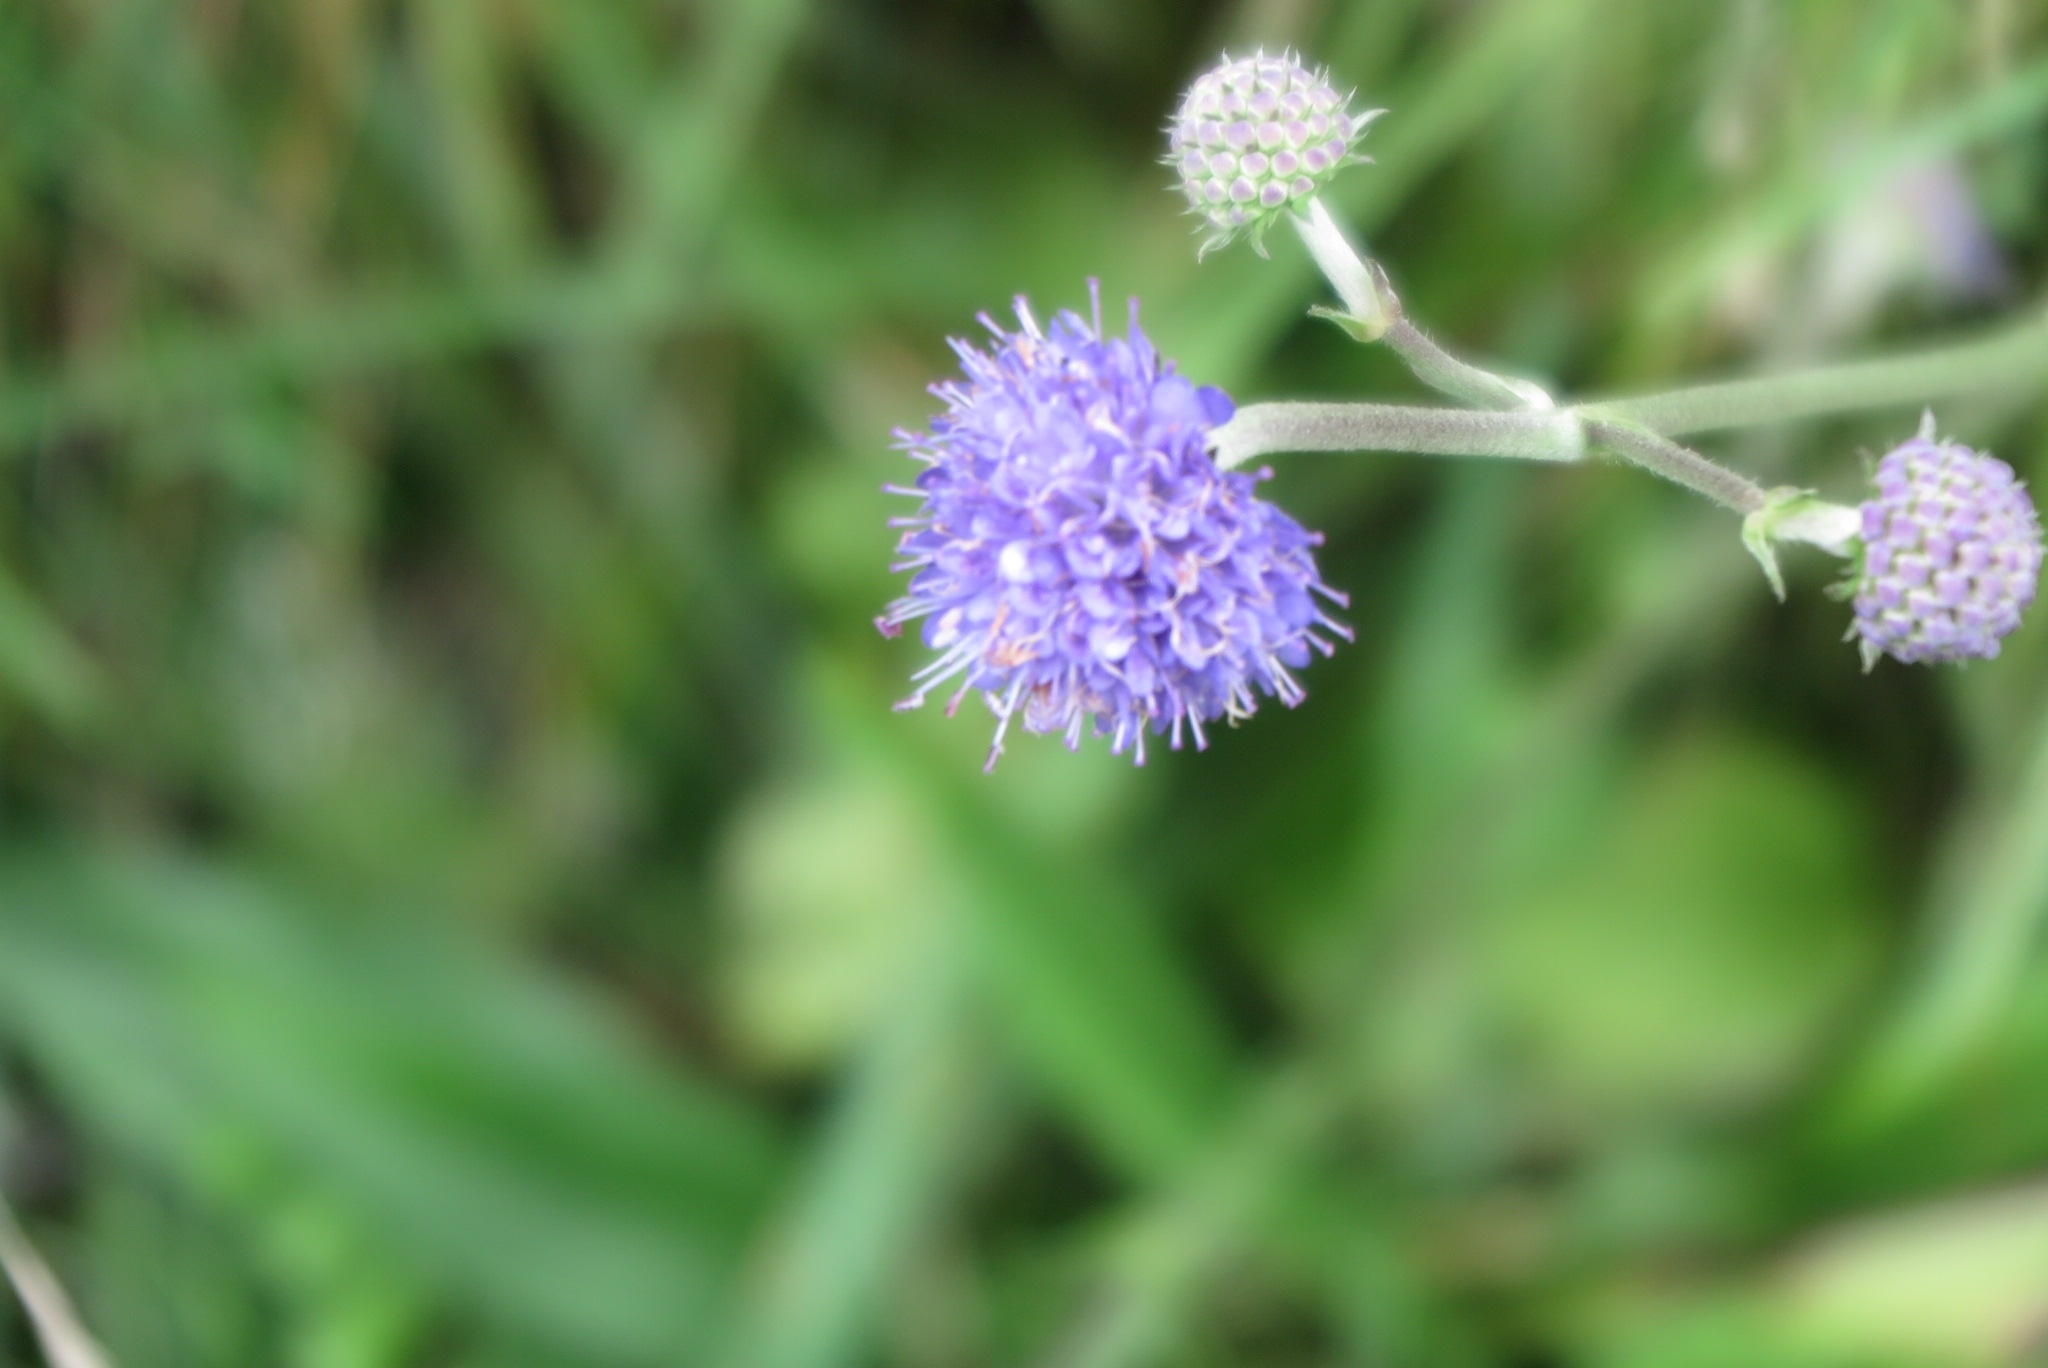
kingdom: Plantae
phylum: Tracheophyta
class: Magnoliopsida
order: Dipsacales
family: Caprifoliaceae
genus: Succisa
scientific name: Succisa pratensis
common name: Devil's-bit
